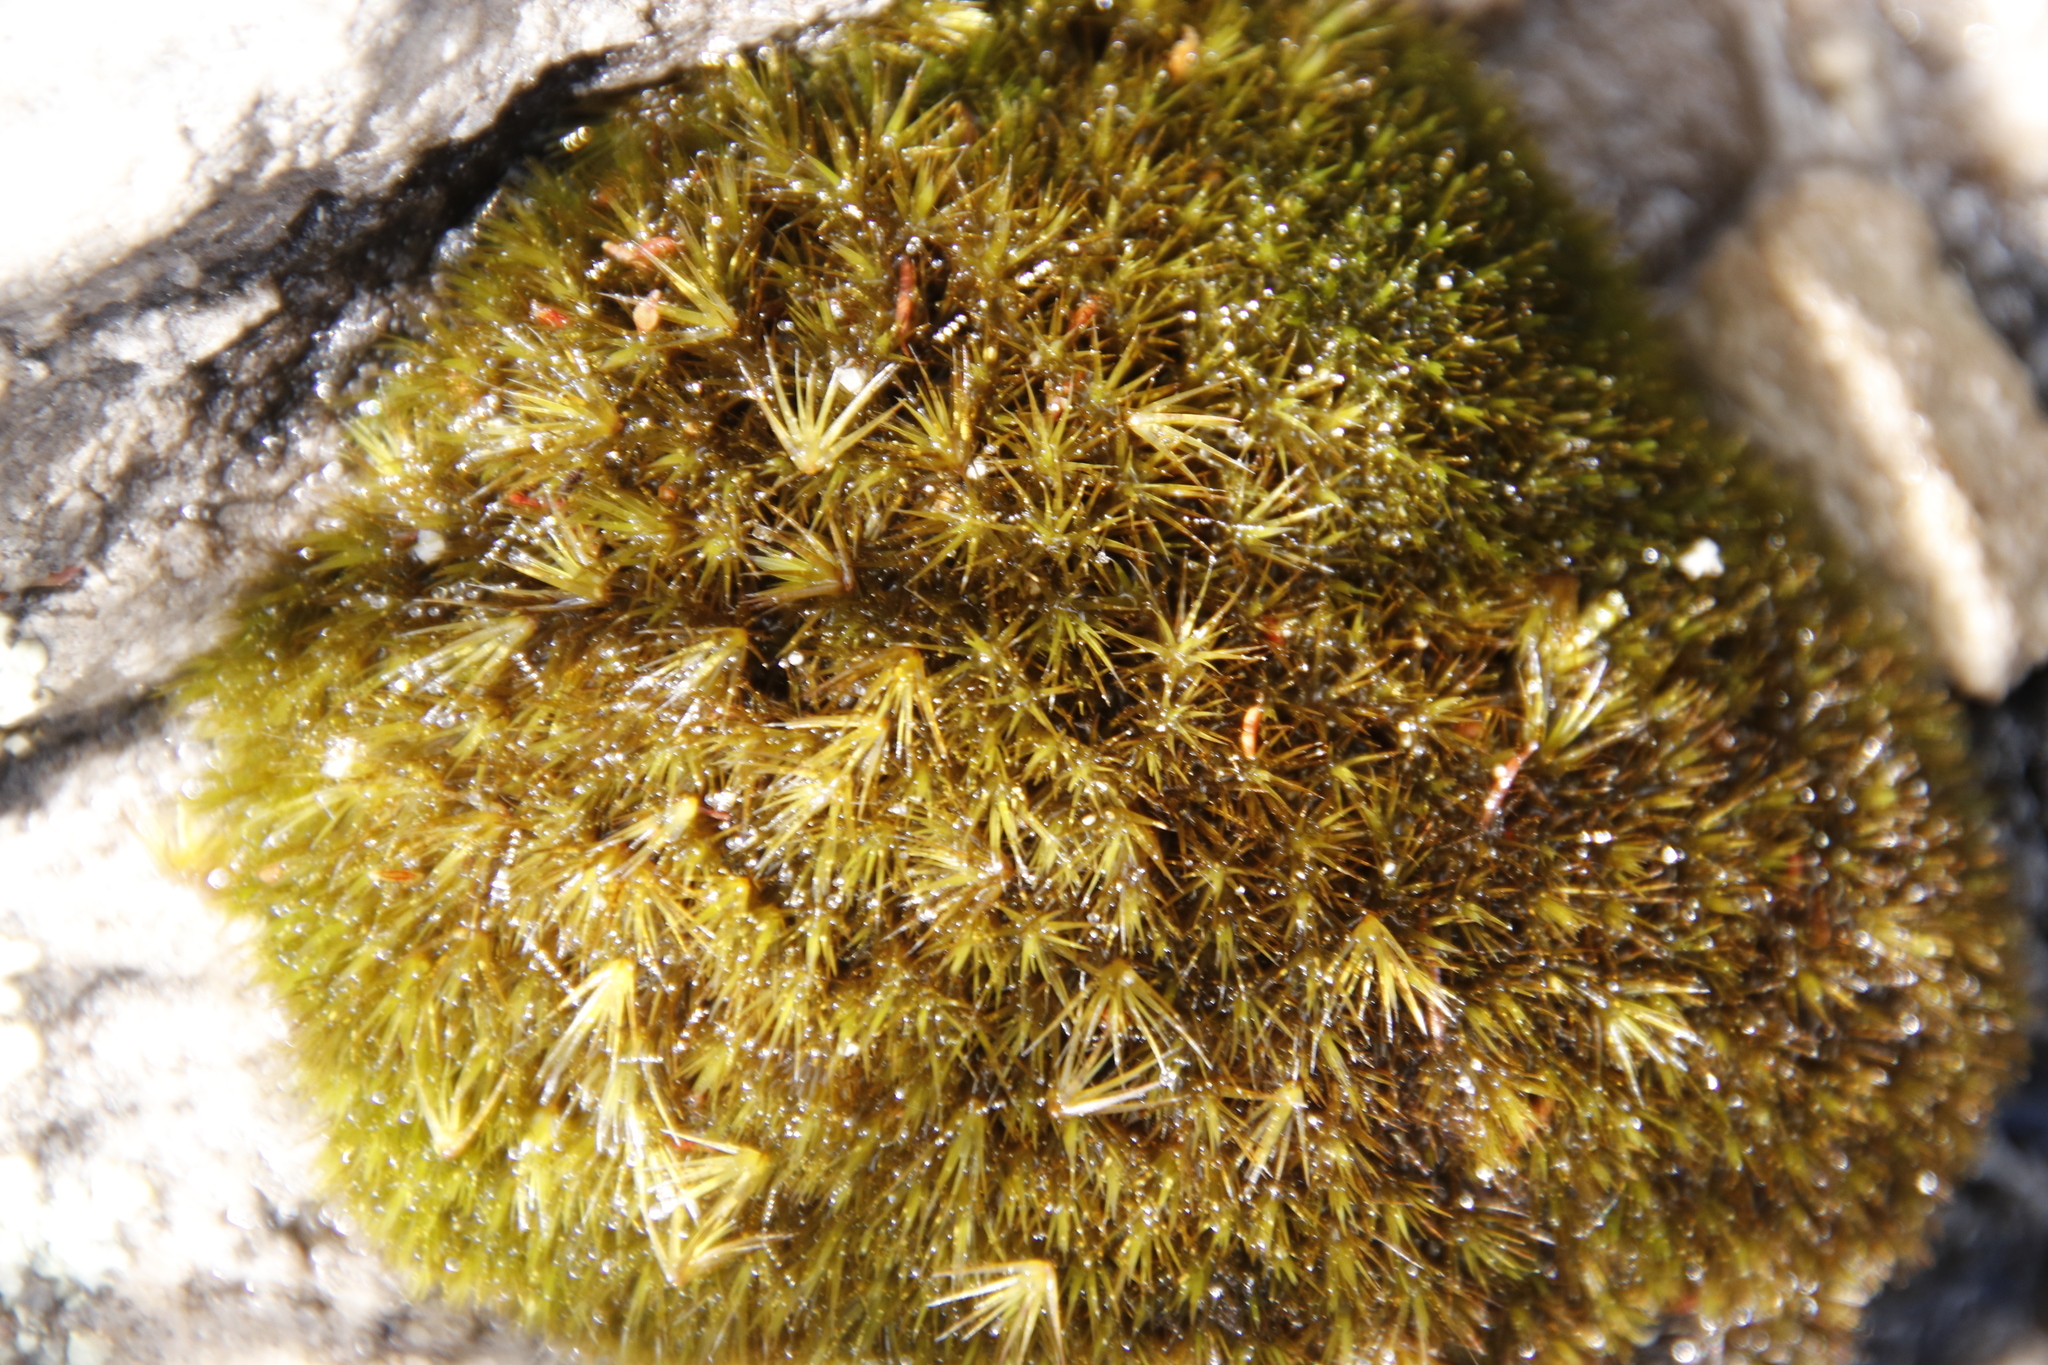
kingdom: Plantae
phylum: Bryophyta
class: Bryopsida
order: Dicranales
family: Leucobryaceae
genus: Campylopus
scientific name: Campylopus bartramiaceus
